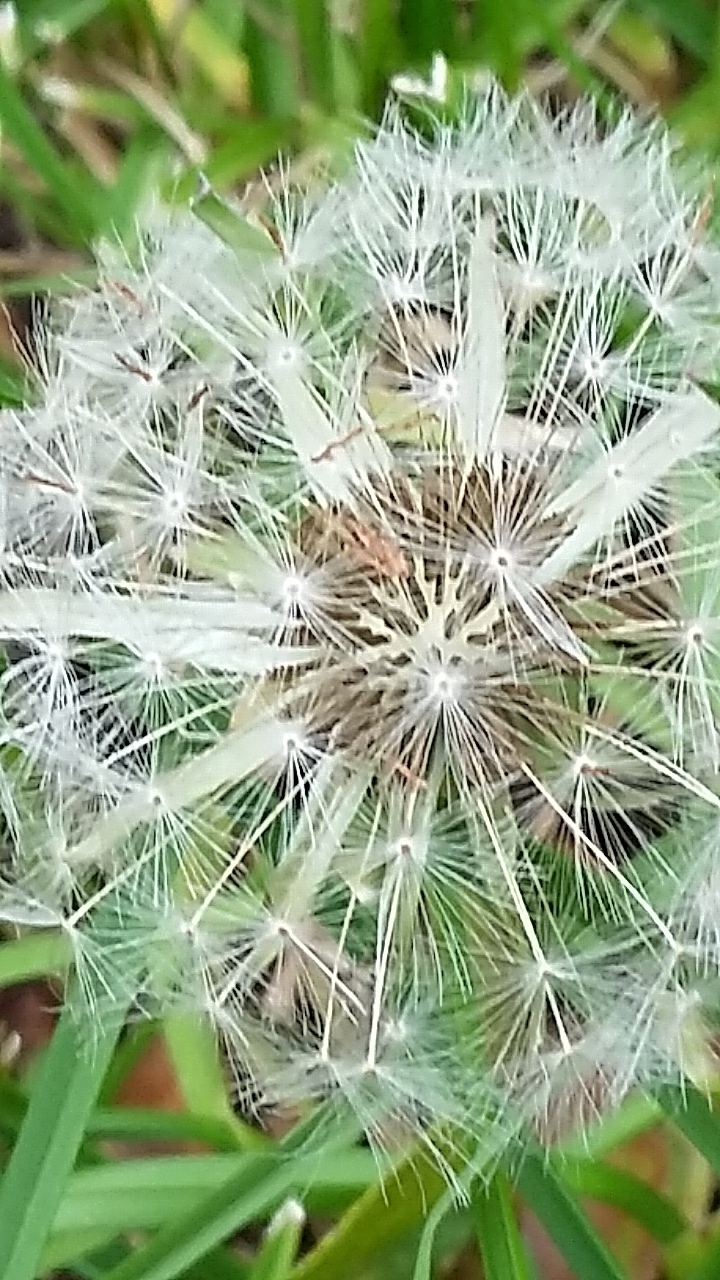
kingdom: Plantae
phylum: Tracheophyta
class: Magnoliopsida
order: Asterales
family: Asteraceae
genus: Taraxacum
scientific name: Taraxacum officinale
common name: Common dandelion
